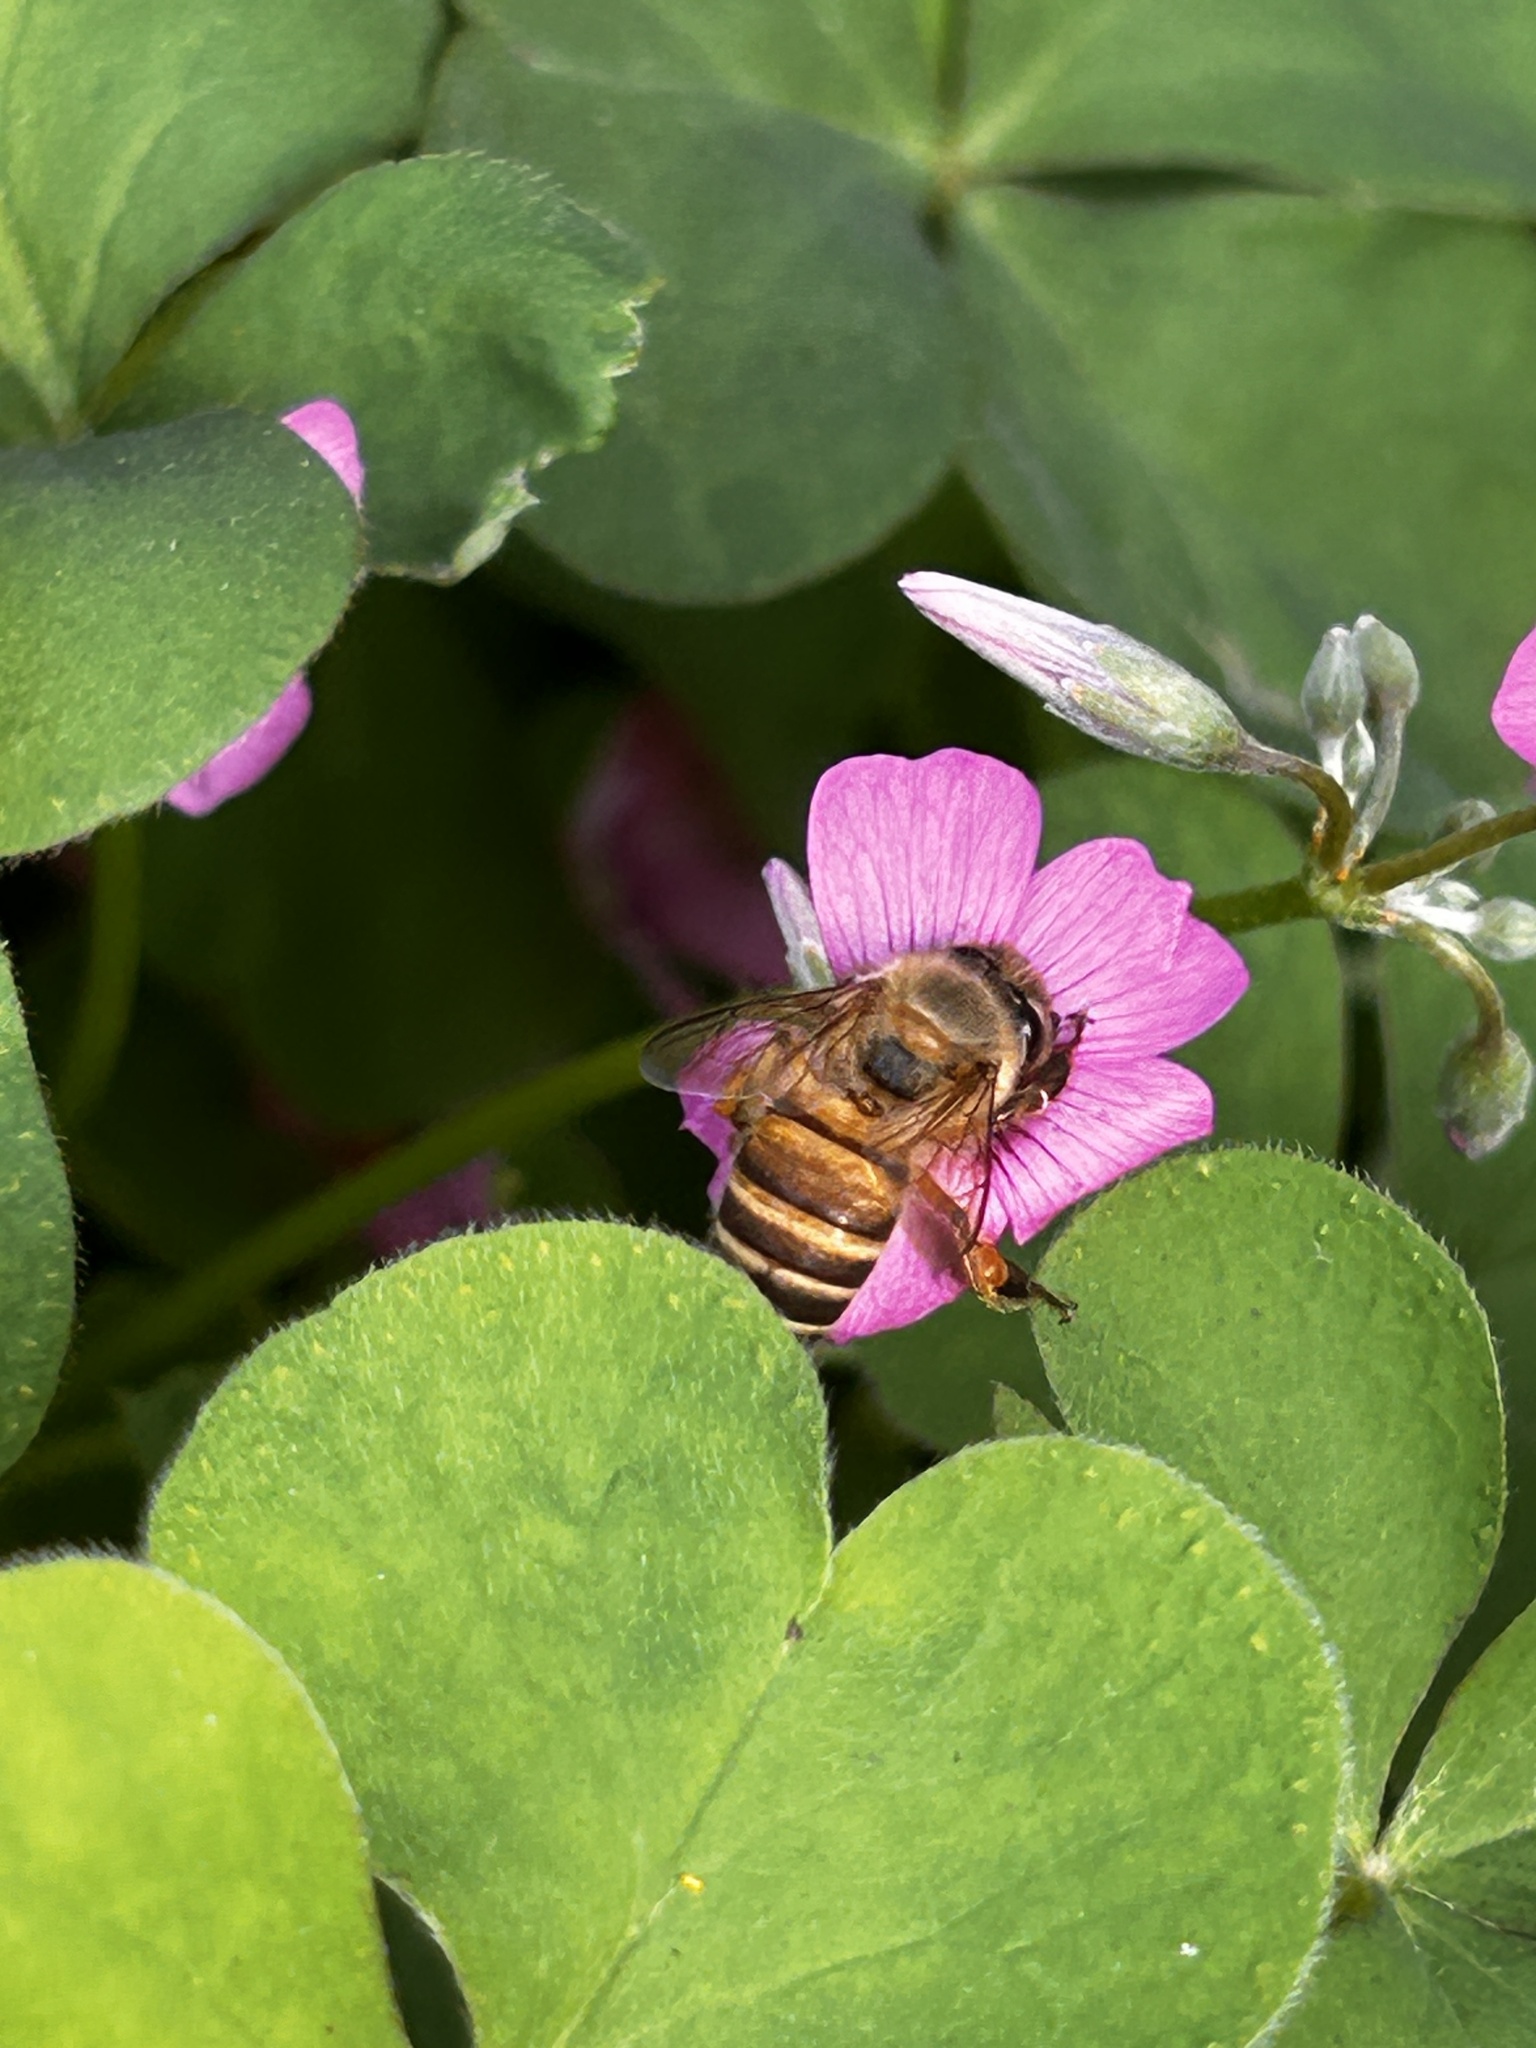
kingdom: Animalia
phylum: Arthropoda
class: Insecta
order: Hymenoptera
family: Apidae
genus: Apis
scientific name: Apis cerana
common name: Honey bee
